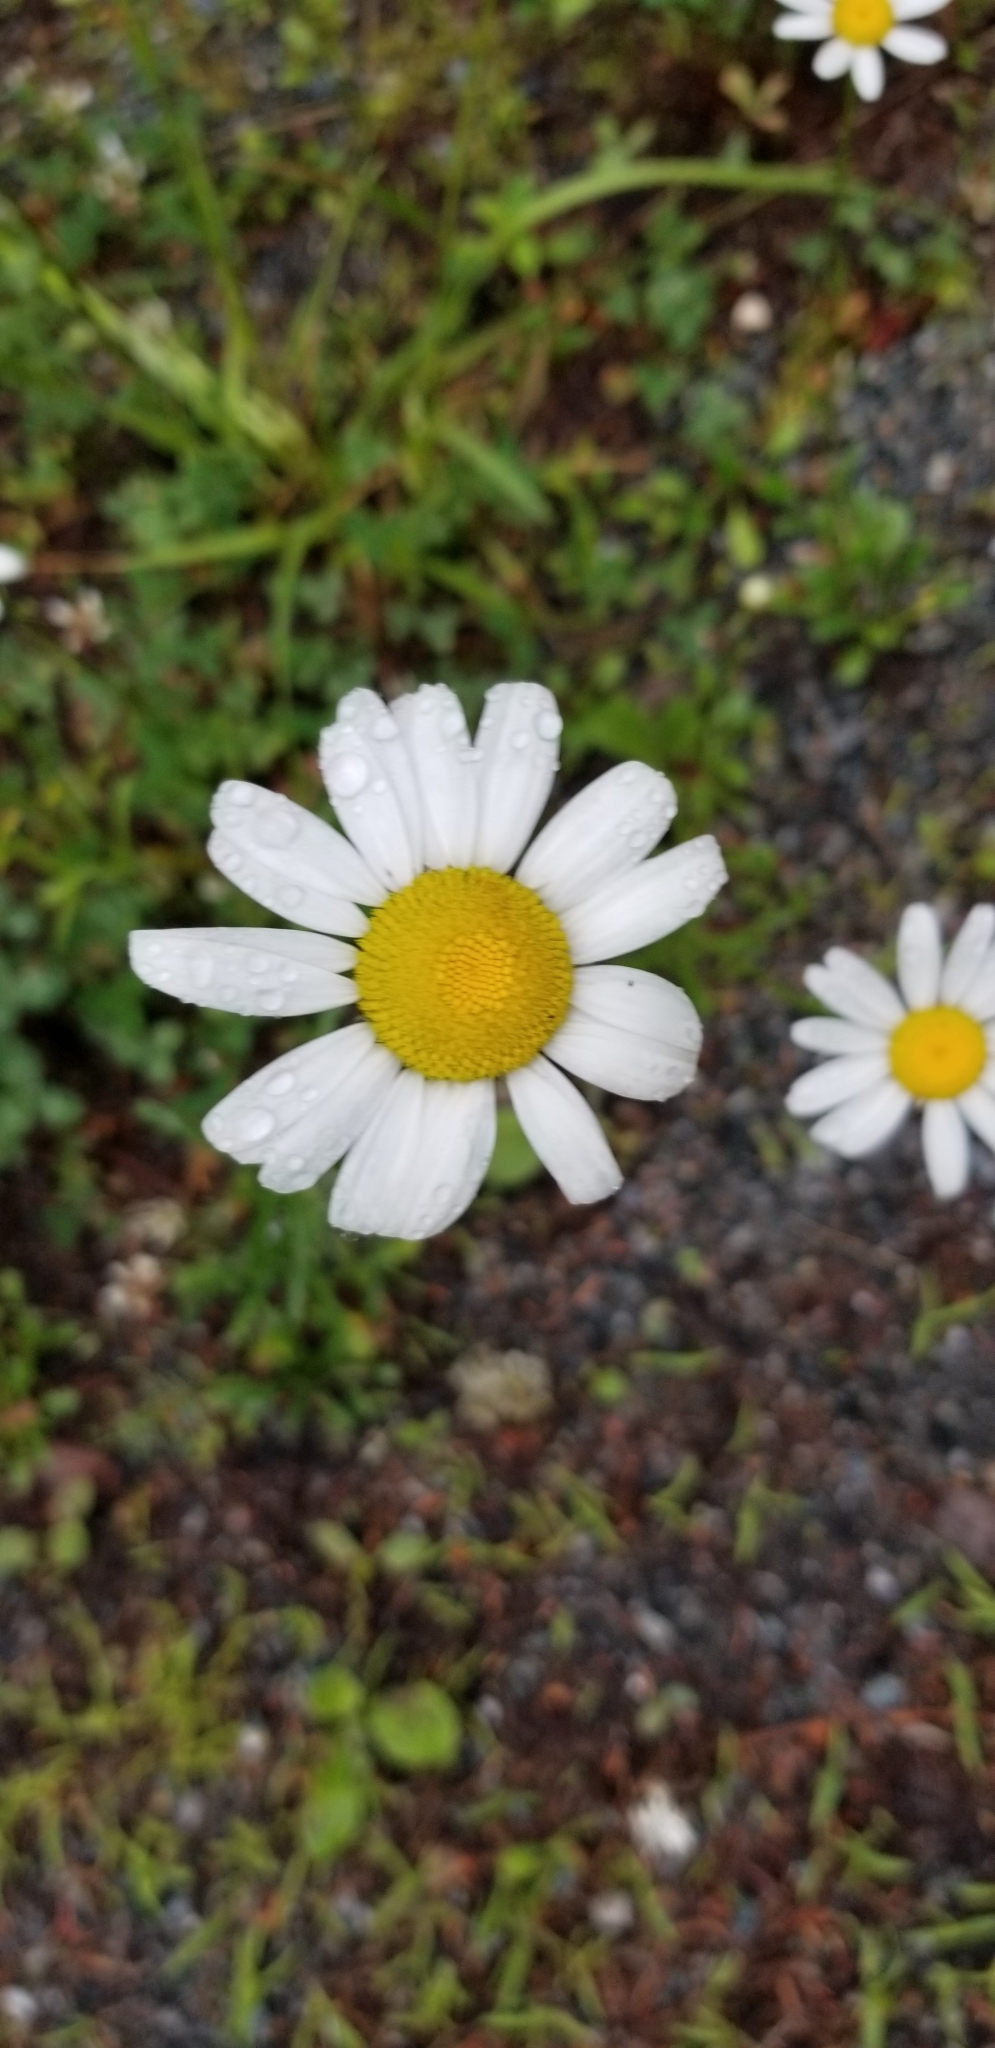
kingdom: Plantae
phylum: Tracheophyta
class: Magnoliopsida
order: Asterales
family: Asteraceae
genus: Leucanthemum
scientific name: Leucanthemum vulgare
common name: Oxeye daisy
